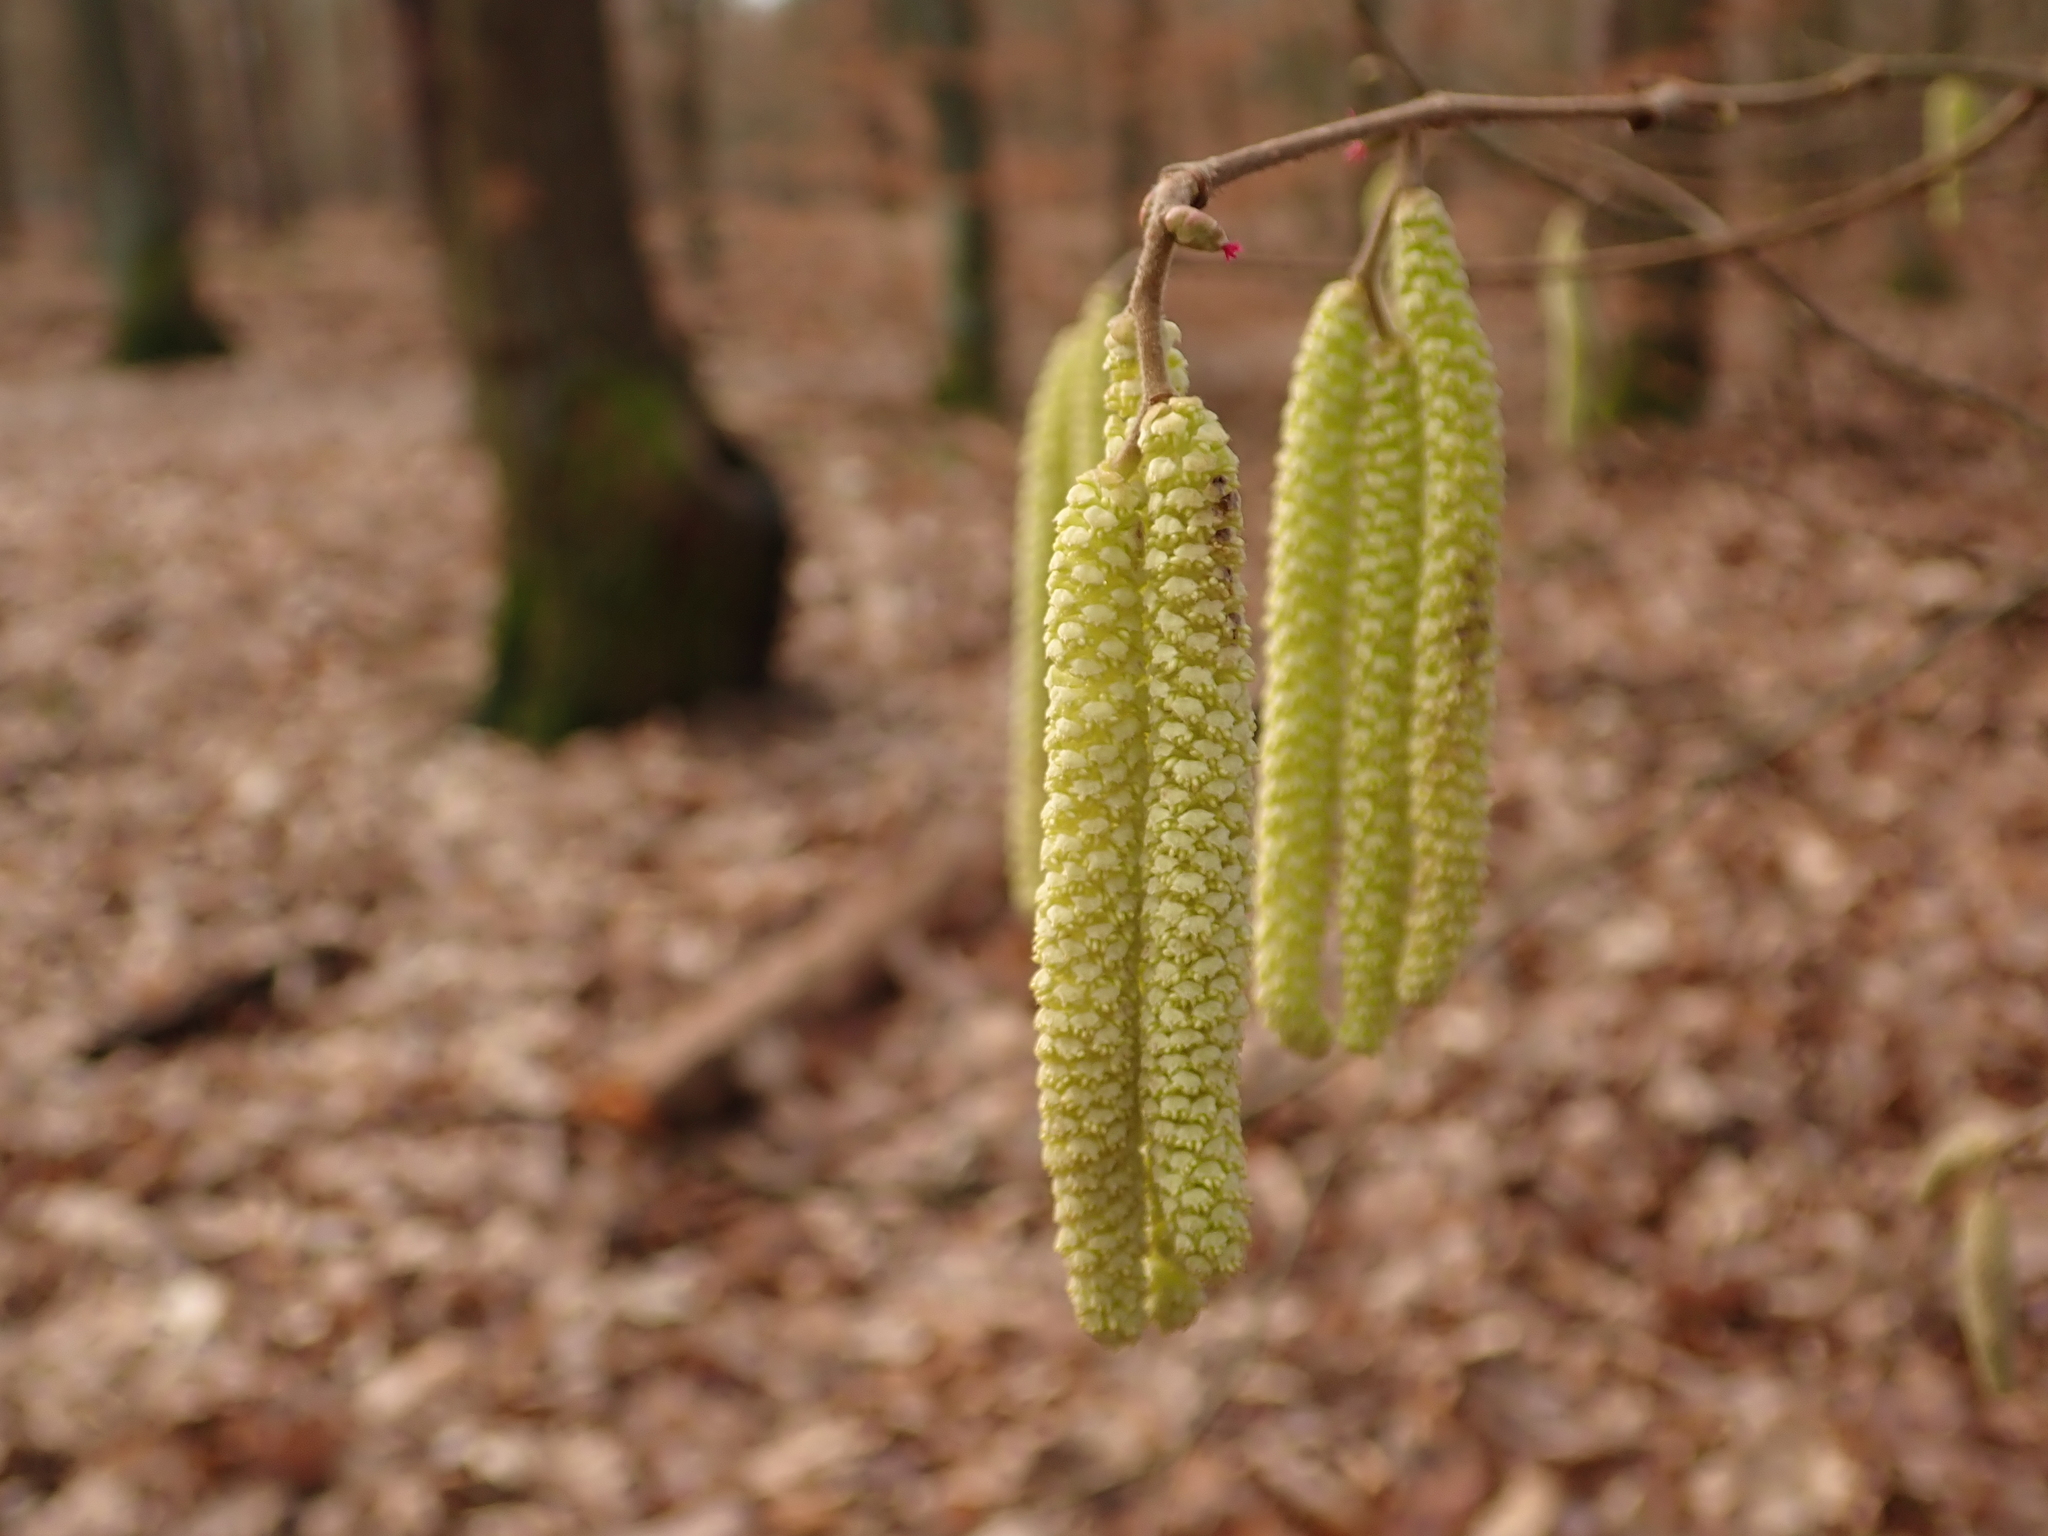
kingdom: Plantae
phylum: Tracheophyta
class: Magnoliopsida
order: Fagales
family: Betulaceae
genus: Corylus
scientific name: Corylus avellana
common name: European hazel
